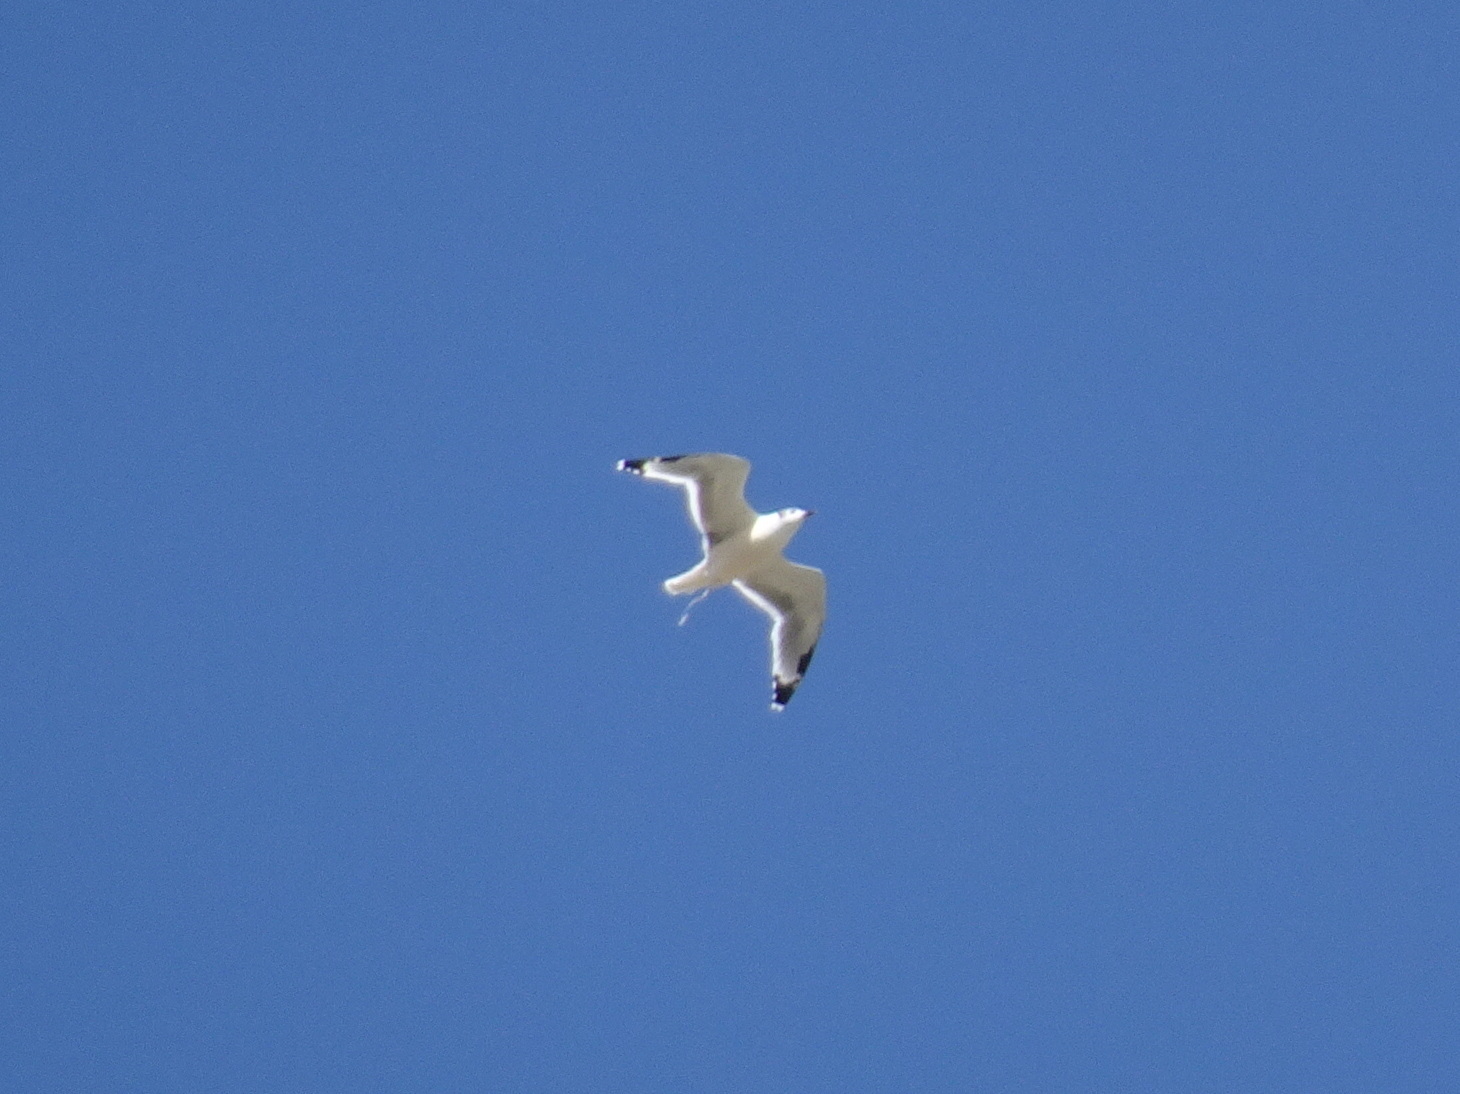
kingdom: Animalia
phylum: Chordata
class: Aves
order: Charadriiformes
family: Laridae
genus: Leucophaeus
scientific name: Leucophaeus pipixcan
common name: Franklin's gull
